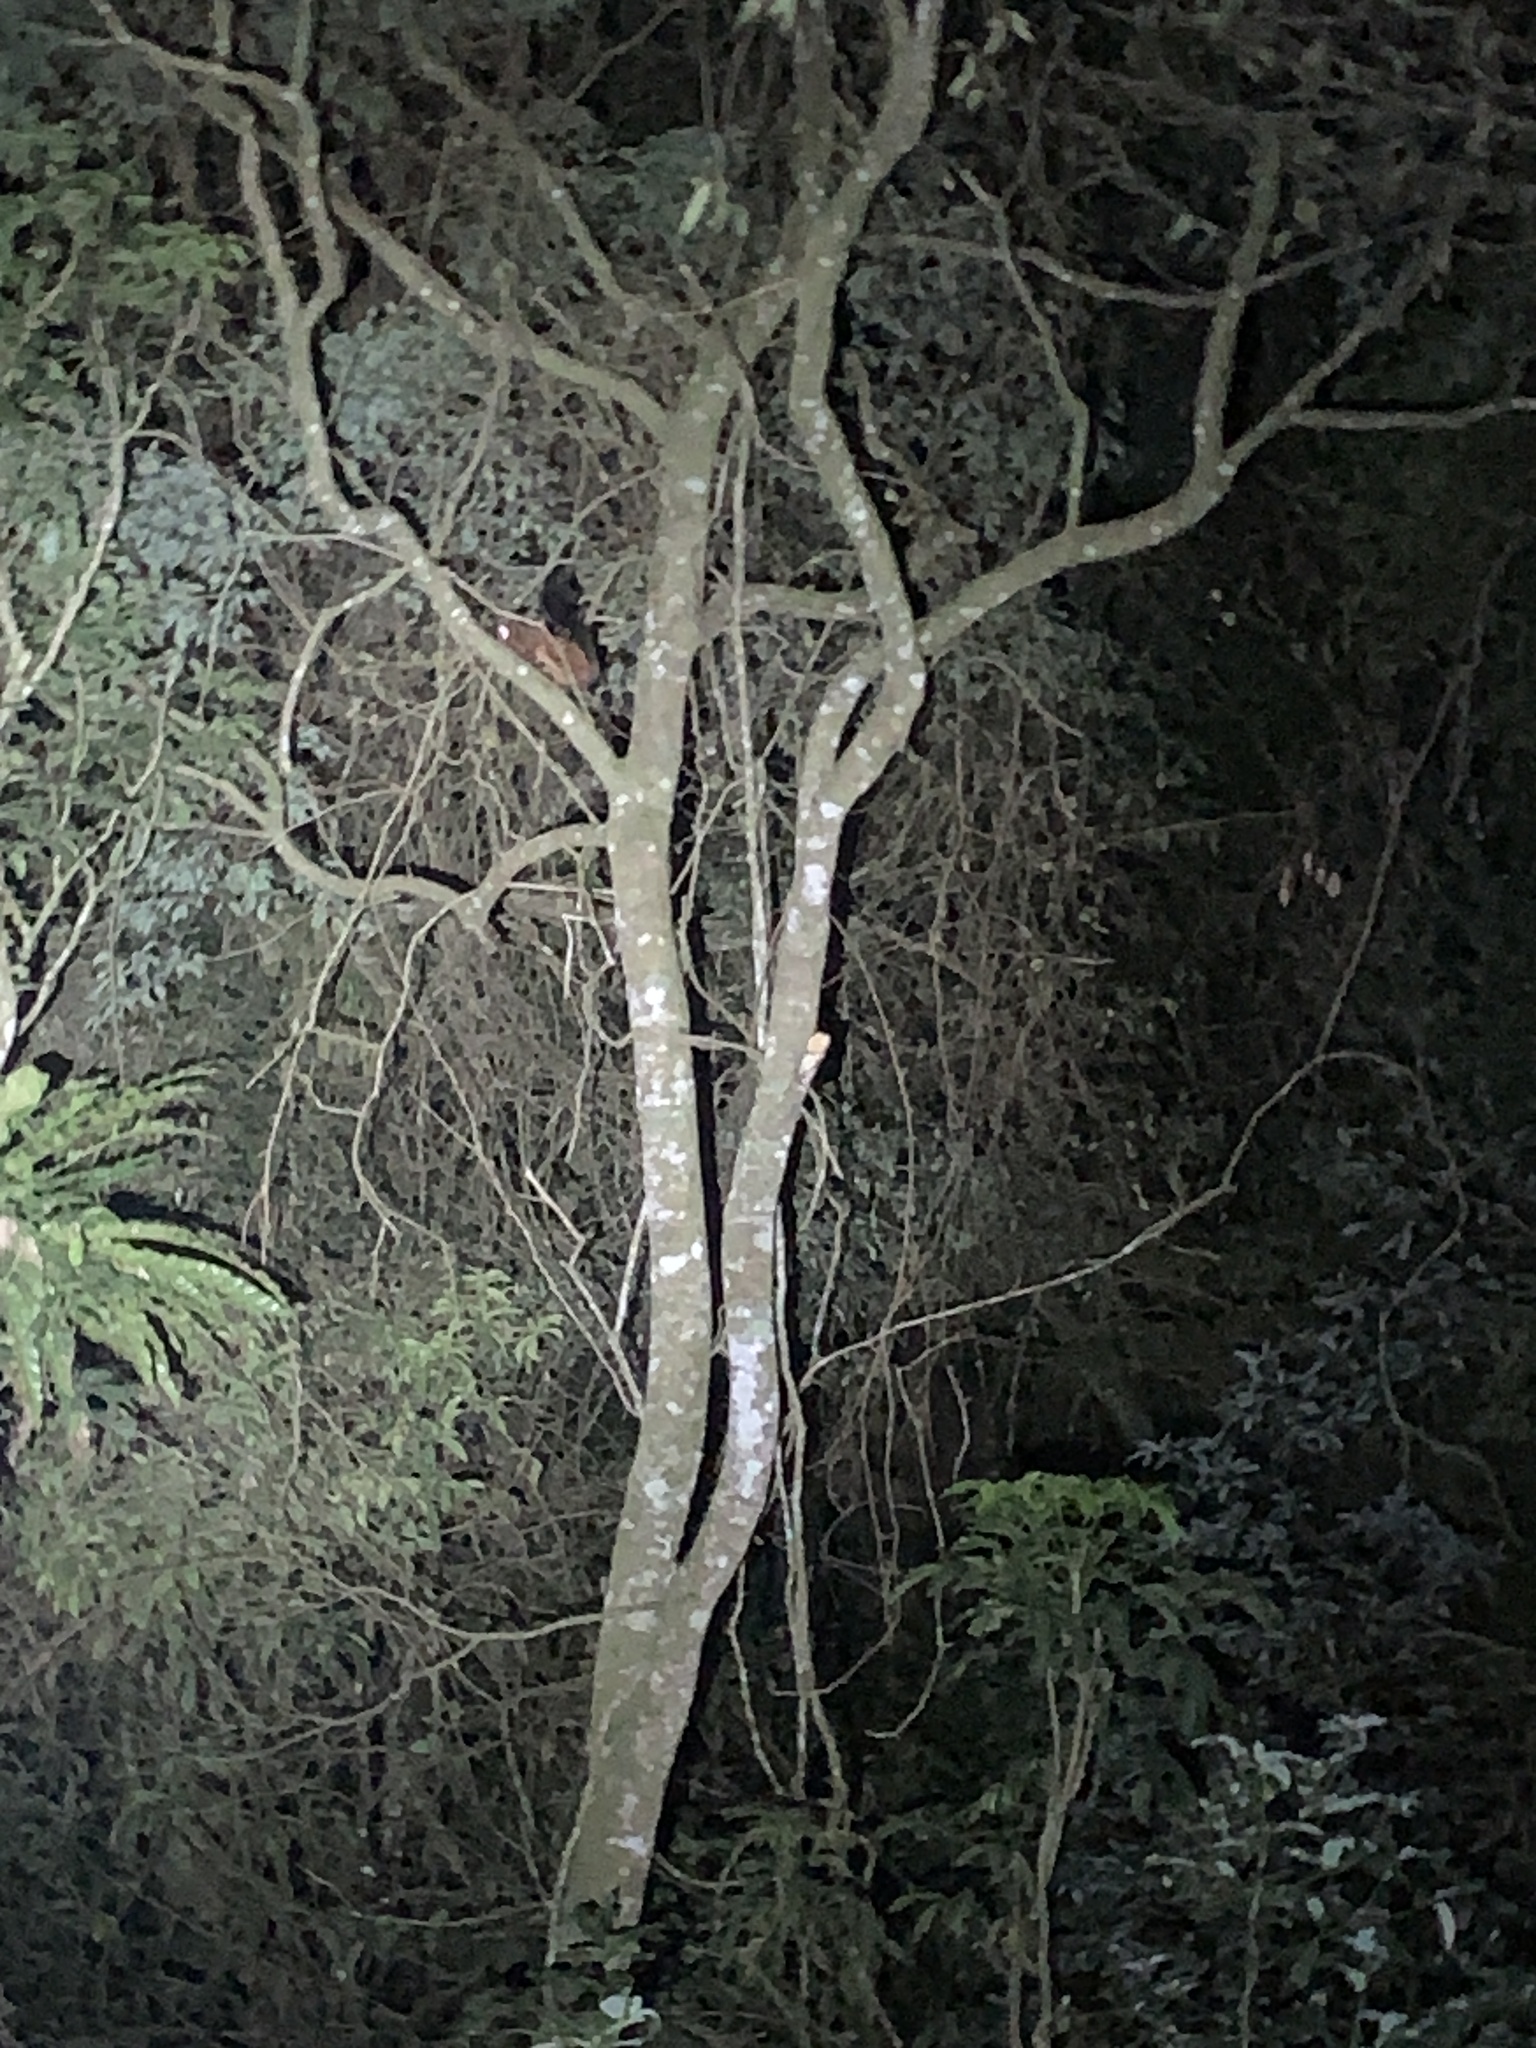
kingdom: Animalia
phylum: Chordata
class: Mammalia
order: Rodentia
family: Sciuridae
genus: Petaurista
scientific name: Petaurista
